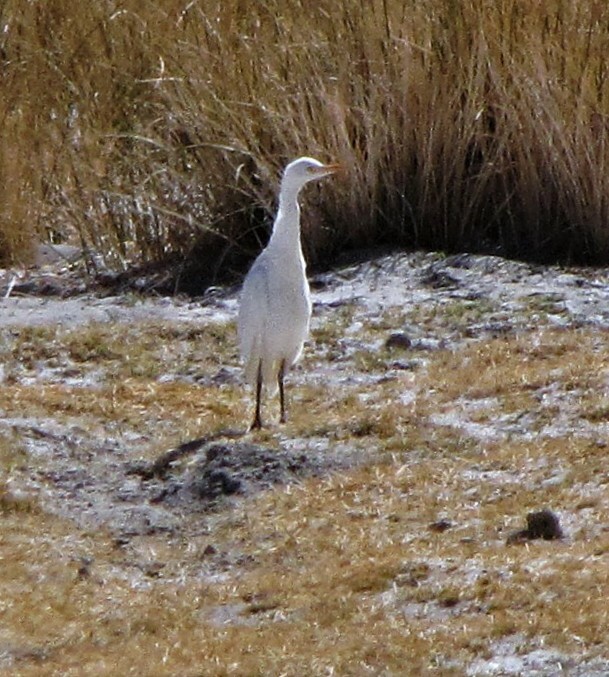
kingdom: Animalia
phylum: Chordata
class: Aves
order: Pelecaniformes
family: Ardeidae
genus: Bubulcus
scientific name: Bubulcus ibis
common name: Cattle egret
